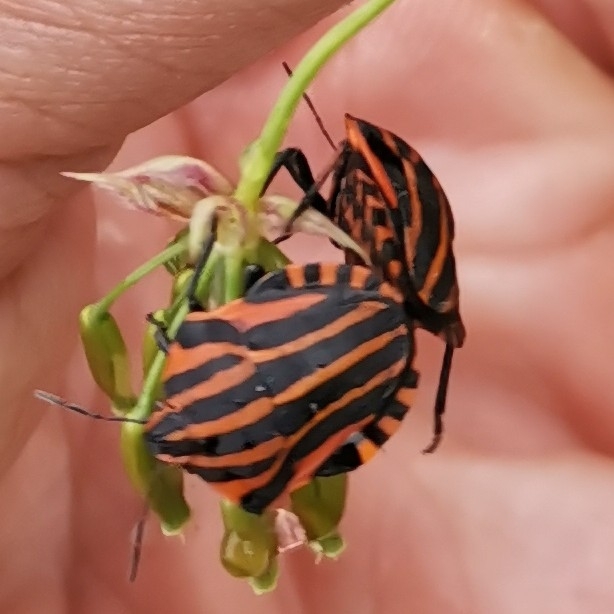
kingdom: Animalia
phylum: Arthropoda
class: Insecta
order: Hemiptera
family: Pentatomidae
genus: Graphosoma
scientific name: Graphosoma italicum
